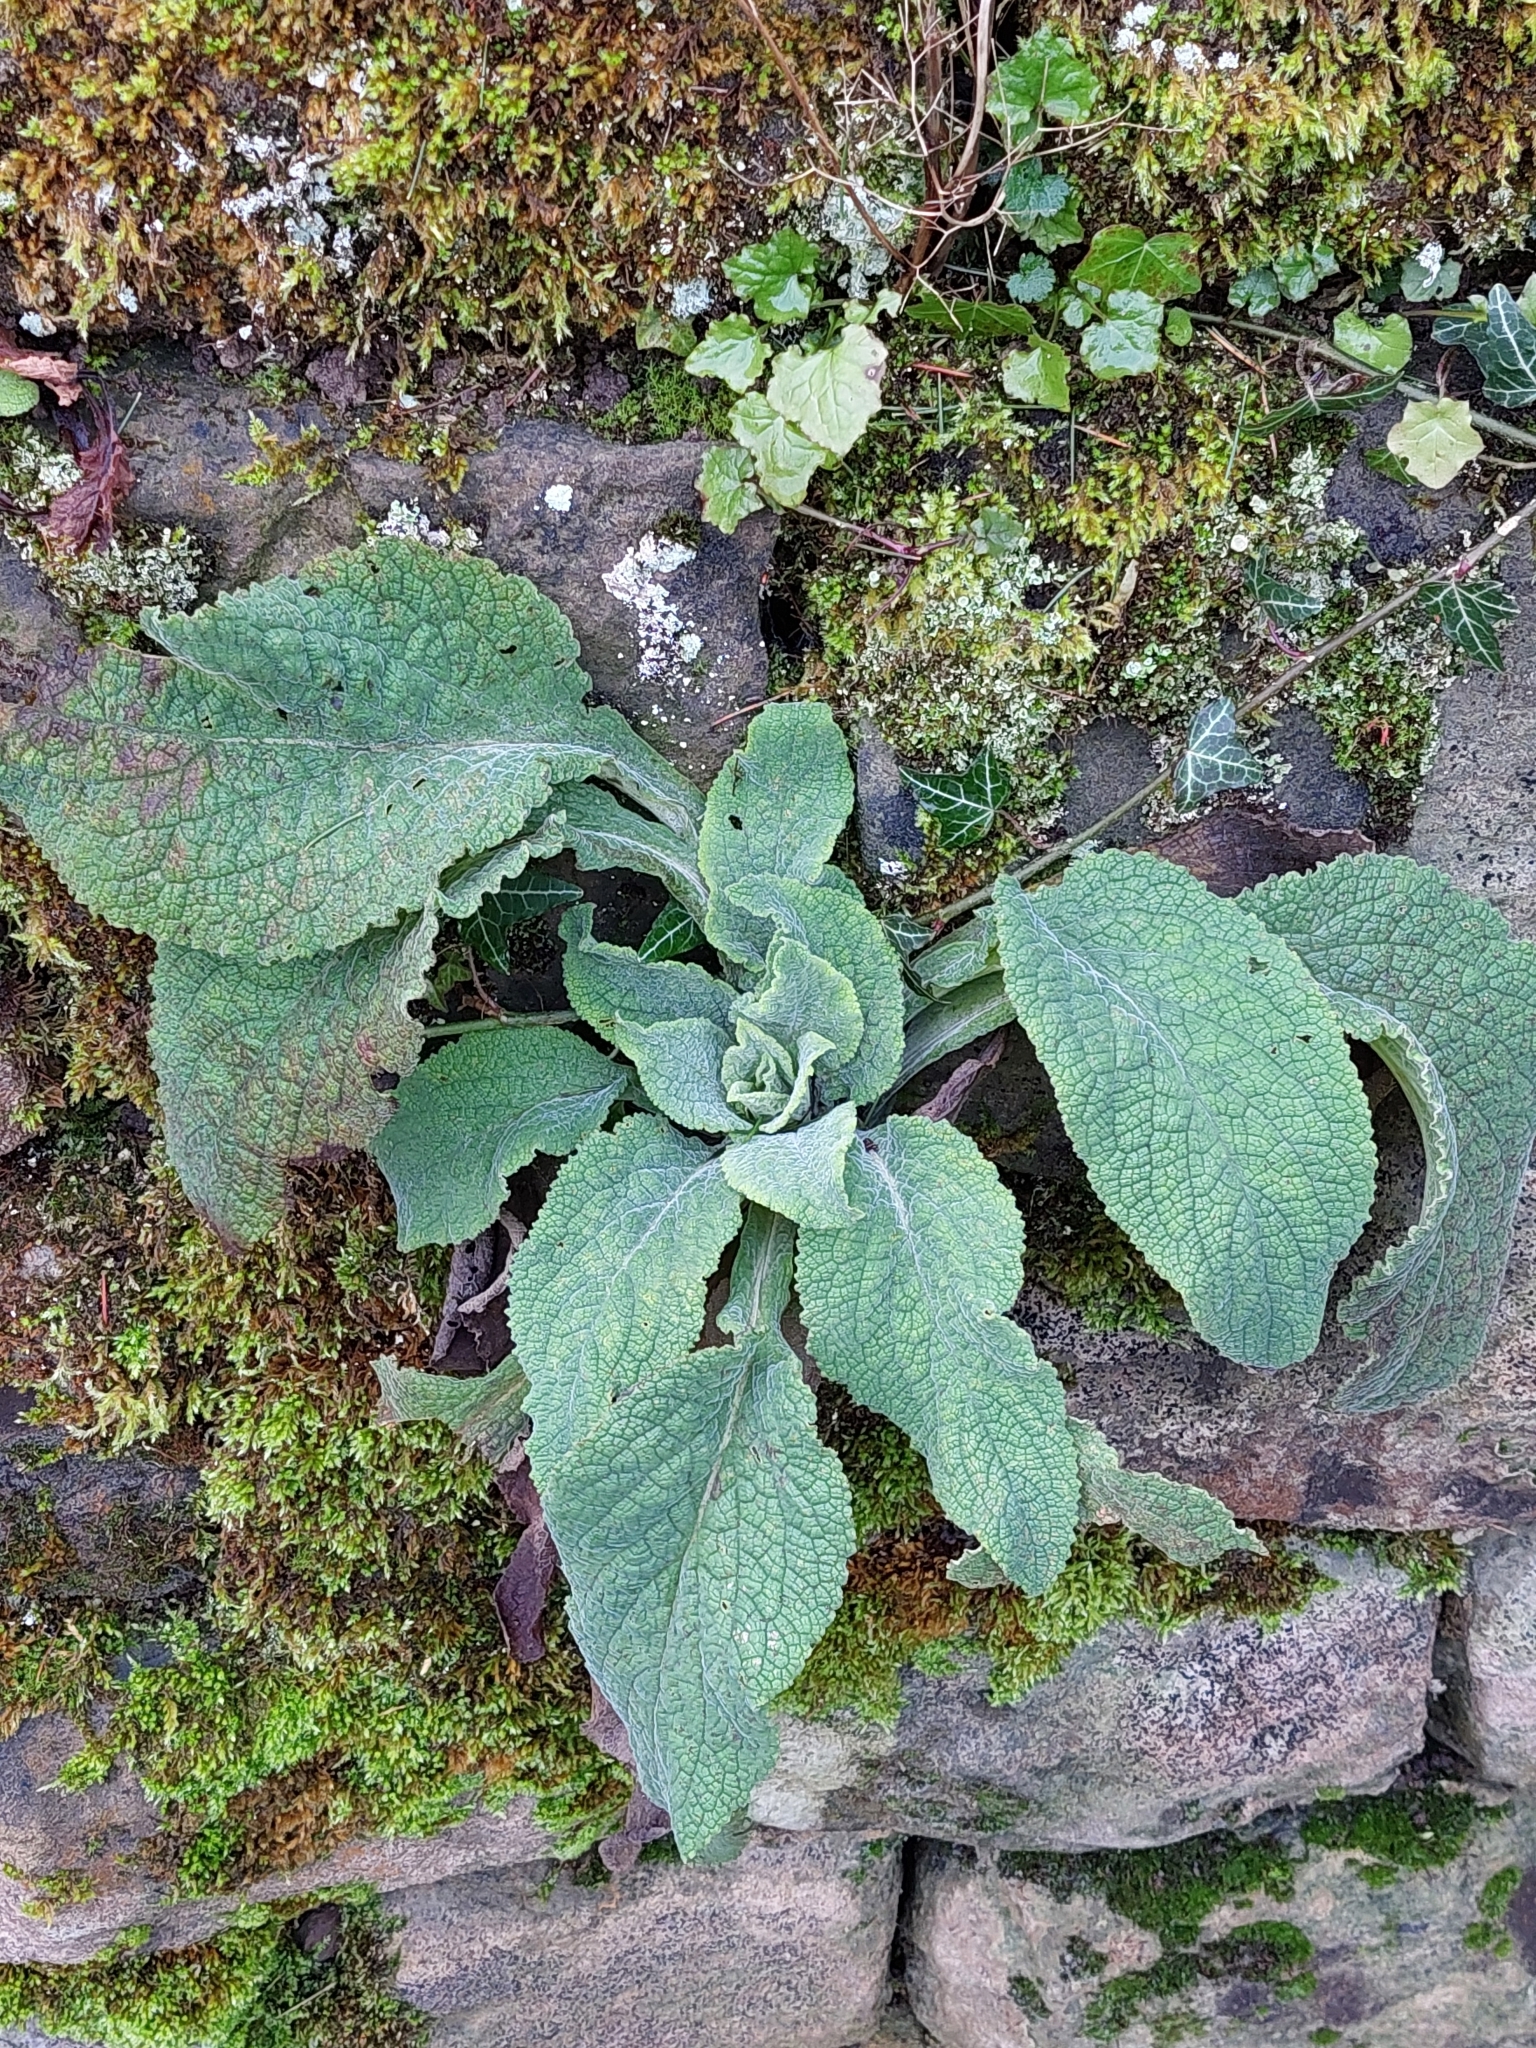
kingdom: Plantae
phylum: Tracheophyta
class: Magnoliopsida
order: Lamiales
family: Plantaginaceae
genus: Digitalis
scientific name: Digitalis purpurea
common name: Foxglove
